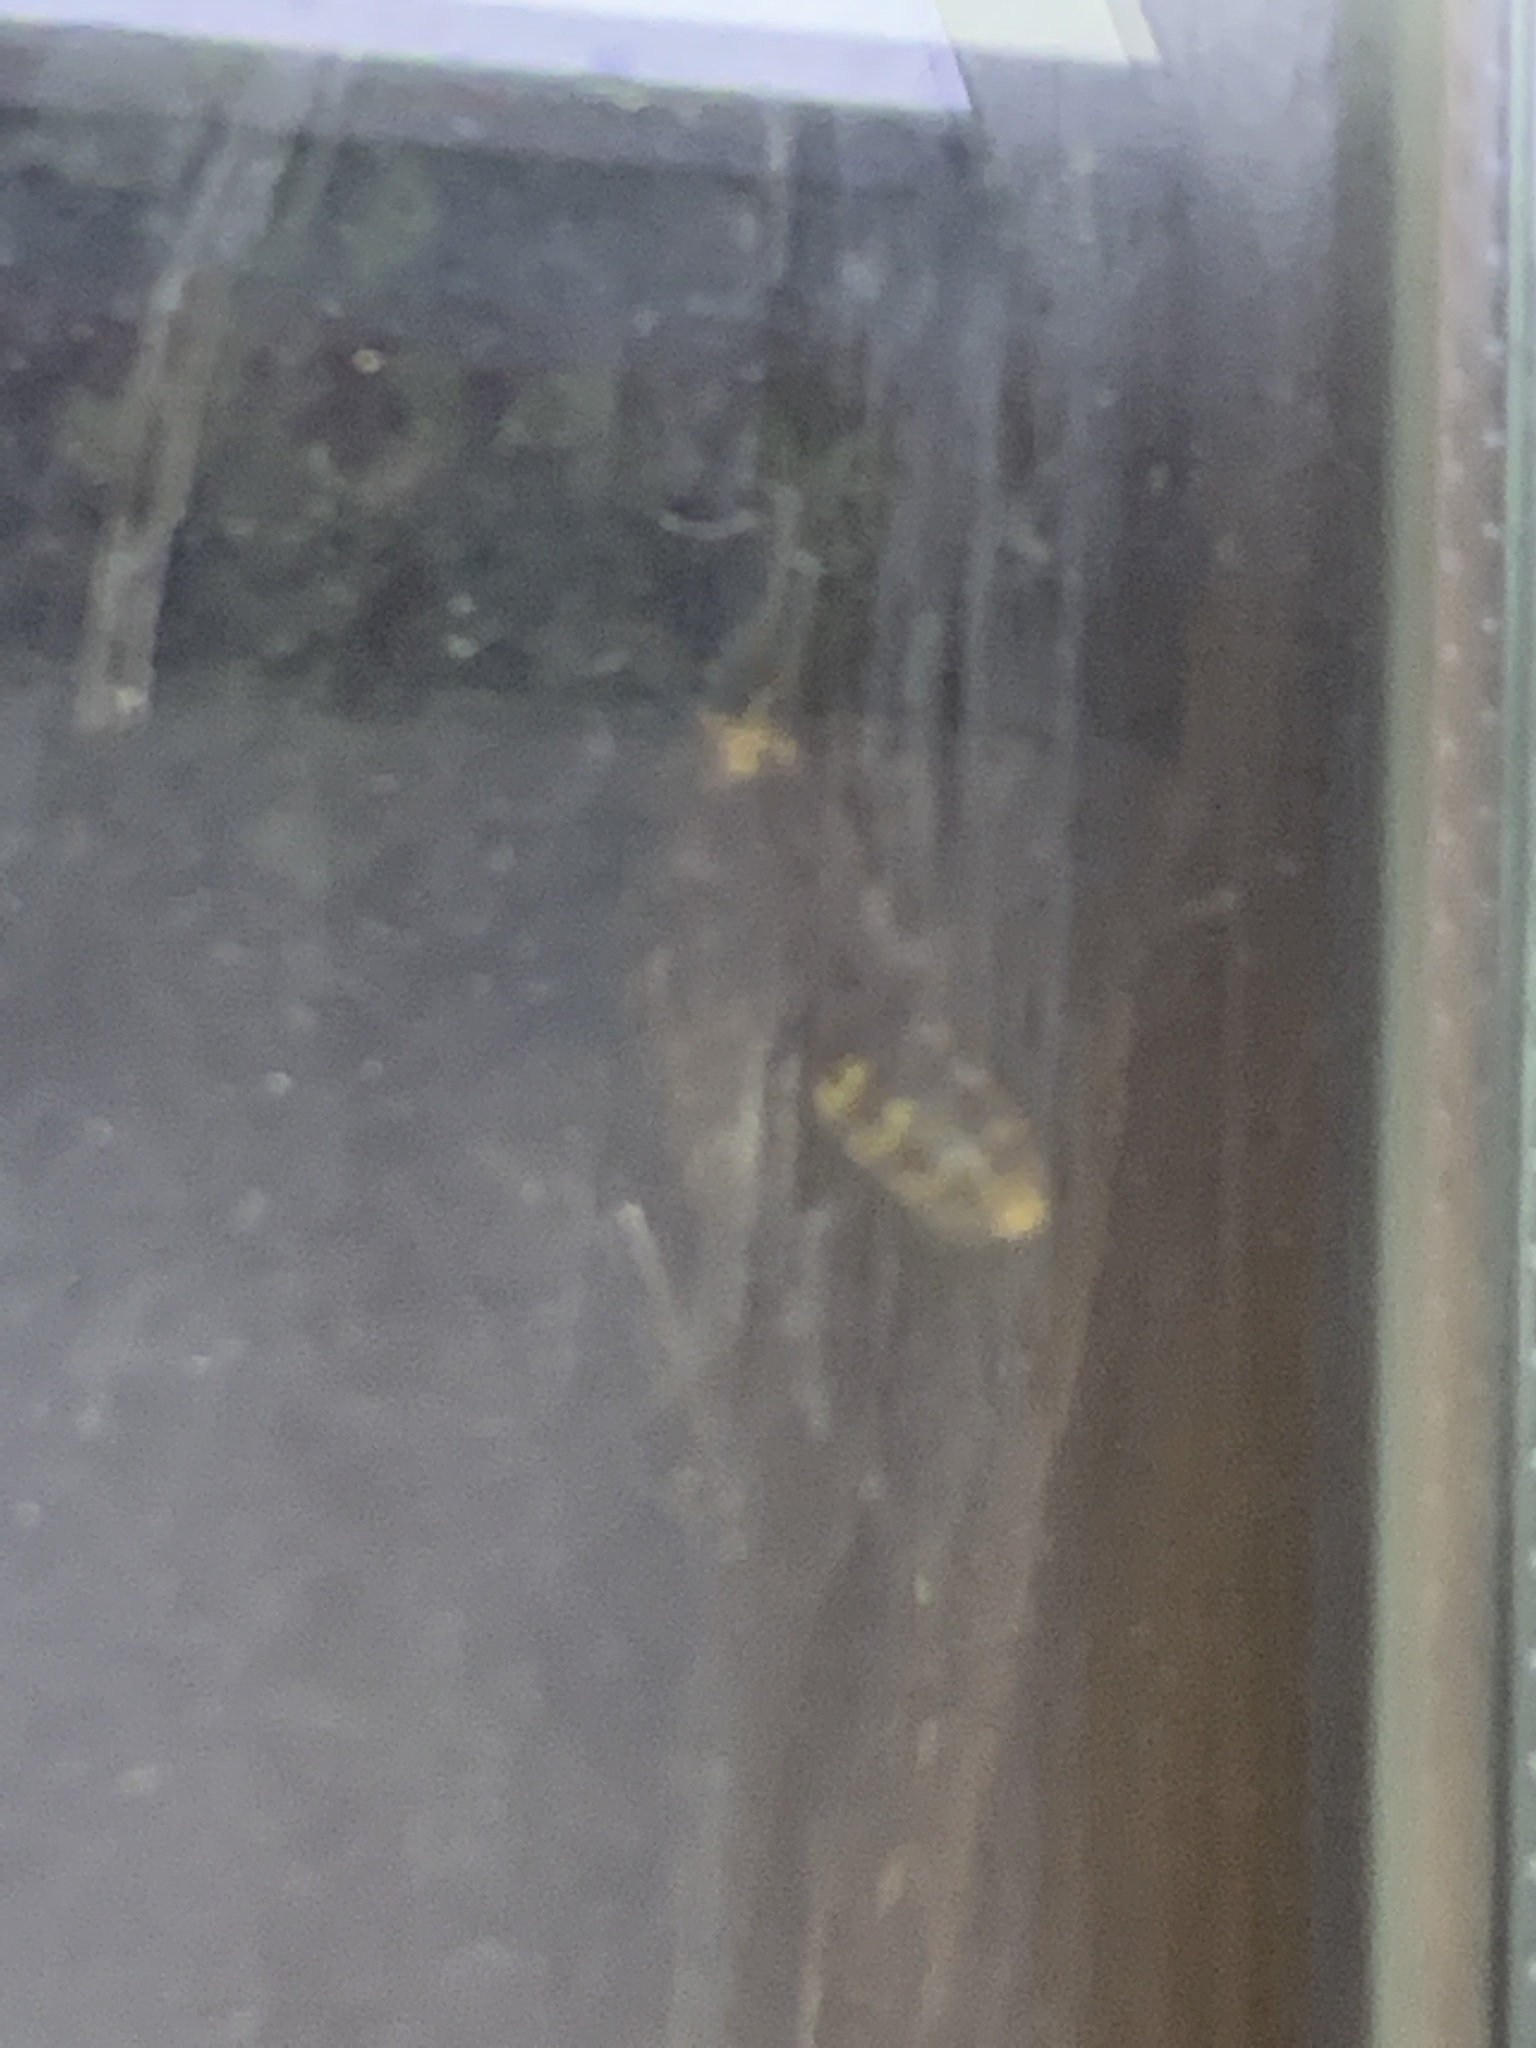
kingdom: Animalia
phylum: Arthropoda
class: Insecta
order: Hymenoptera
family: Vespidae
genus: Vespa
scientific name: Vespa crabro
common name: Hornet
